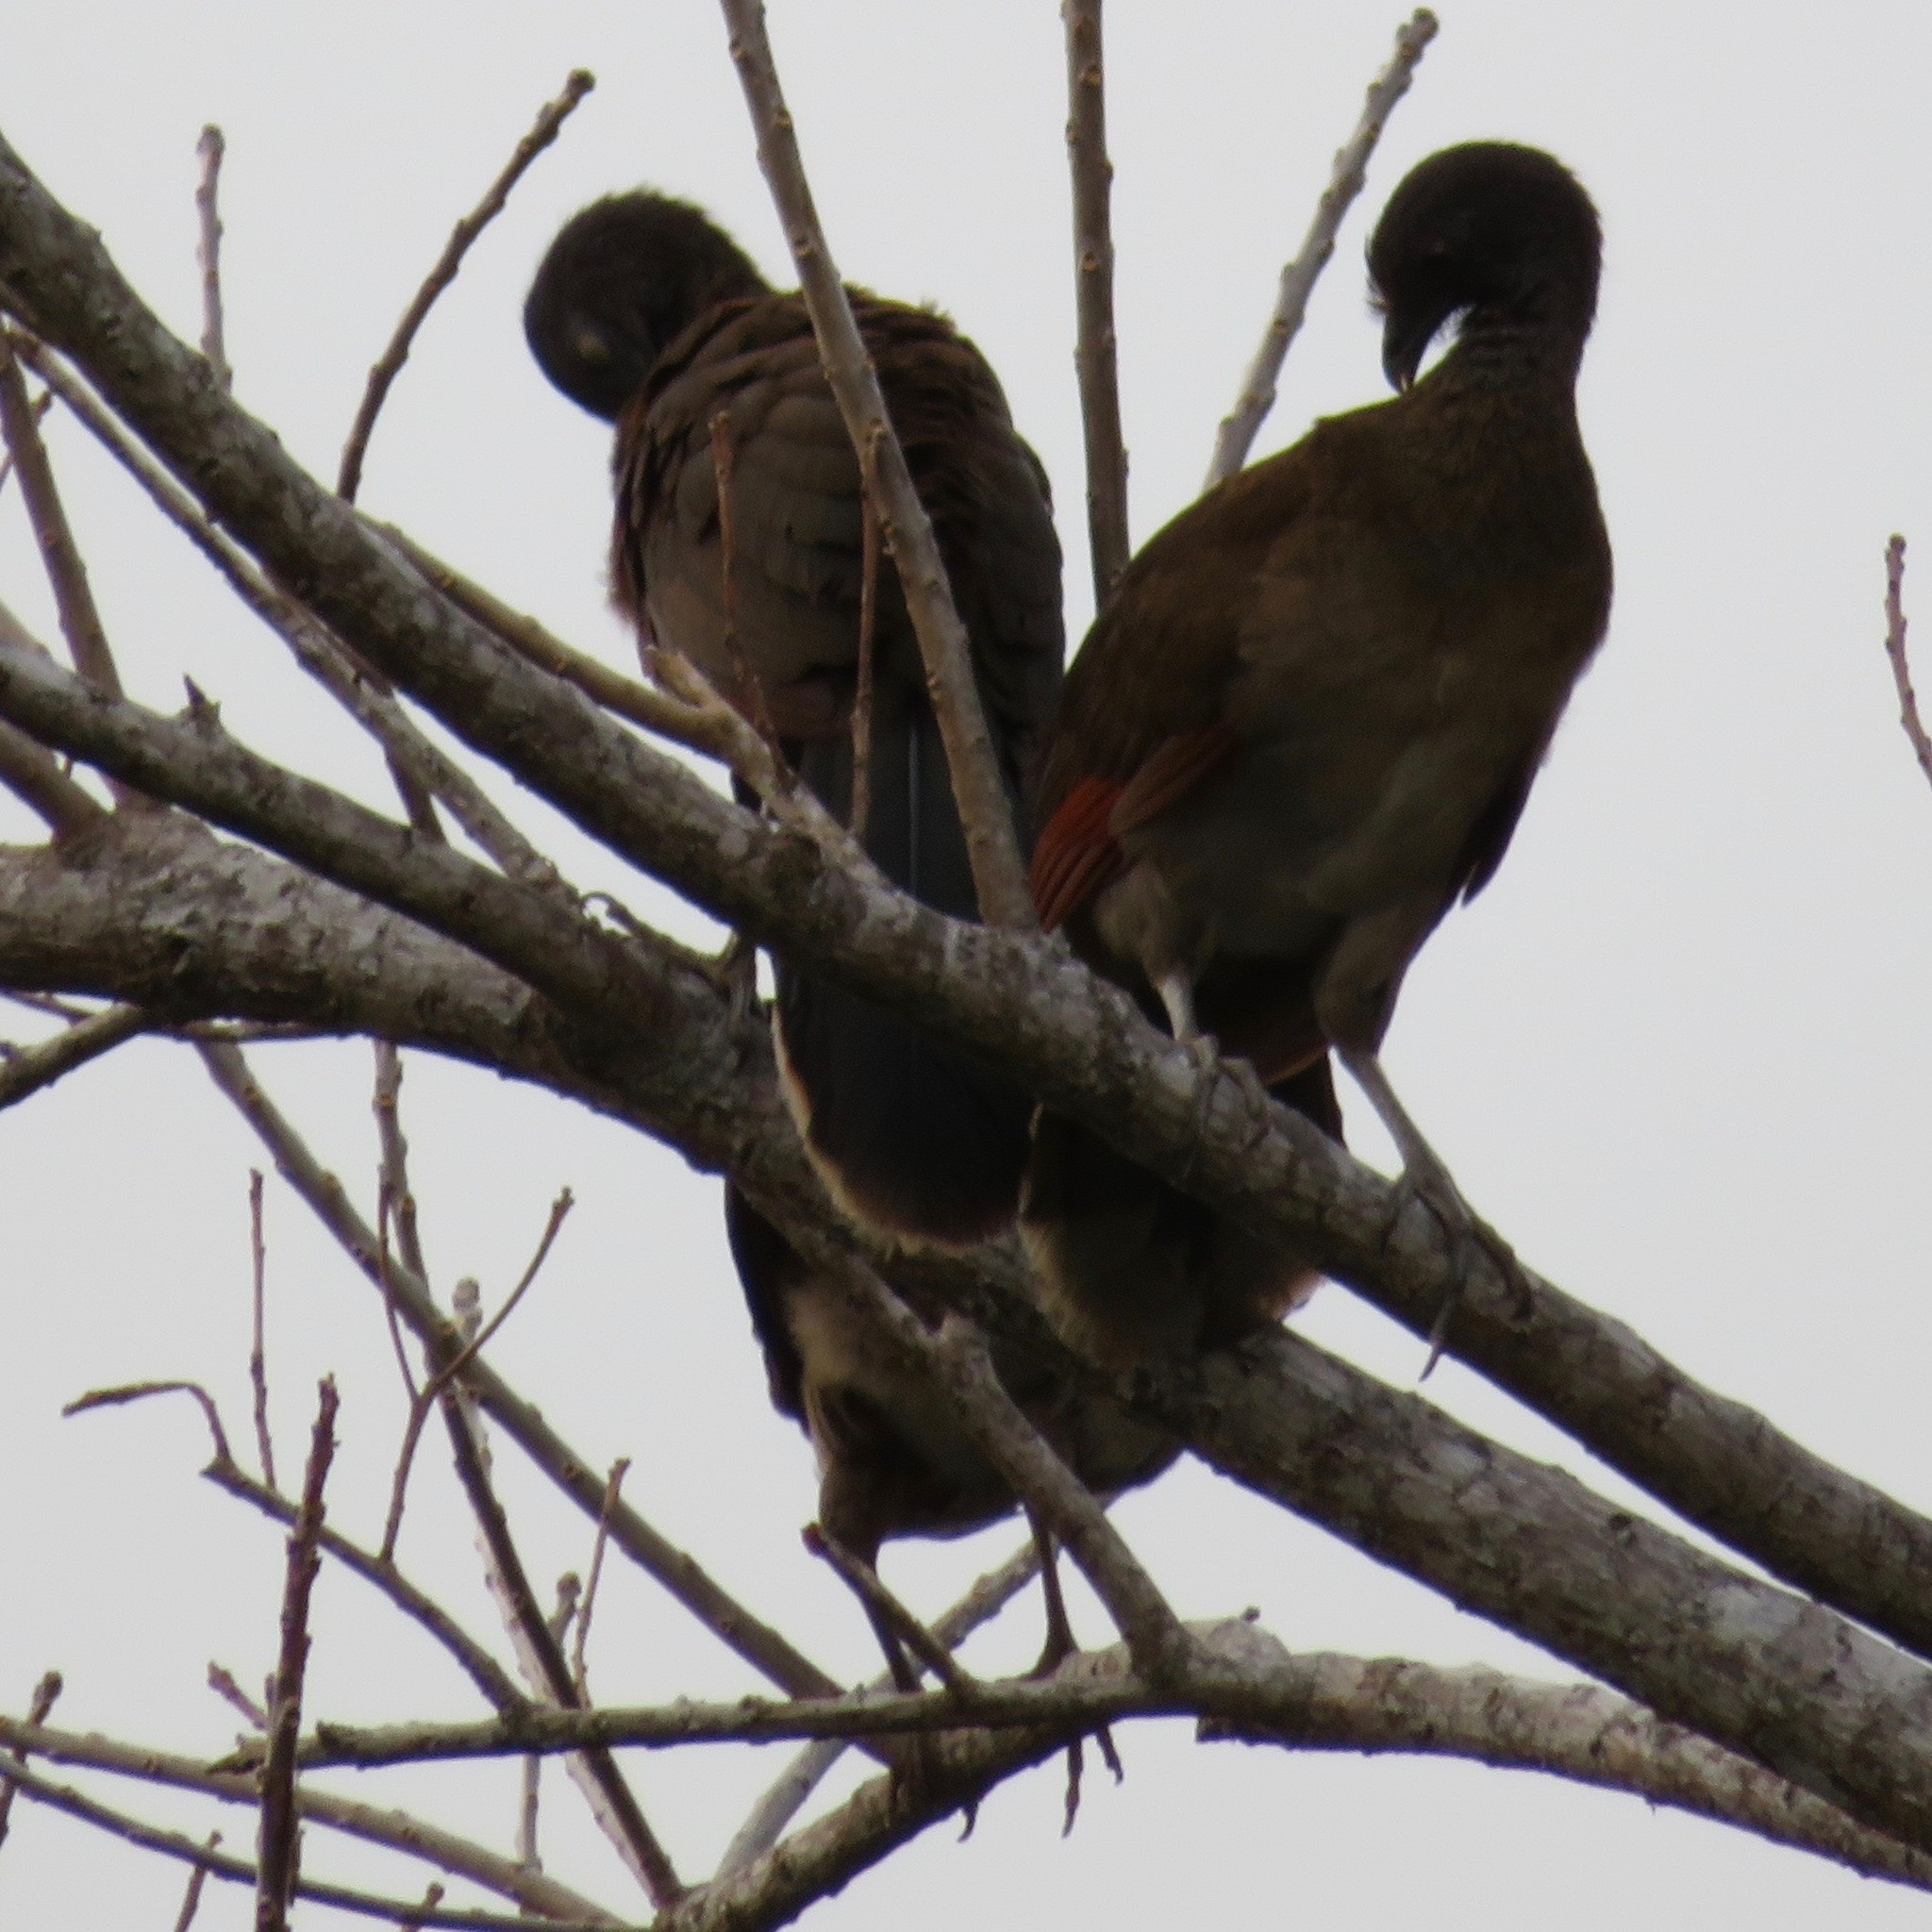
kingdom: Animalia
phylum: Chordata
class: Aves
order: Galliformes
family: Cracidae
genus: Ortalis
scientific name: Ortalis cinereiceps
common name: Grey-headed chachalaca
